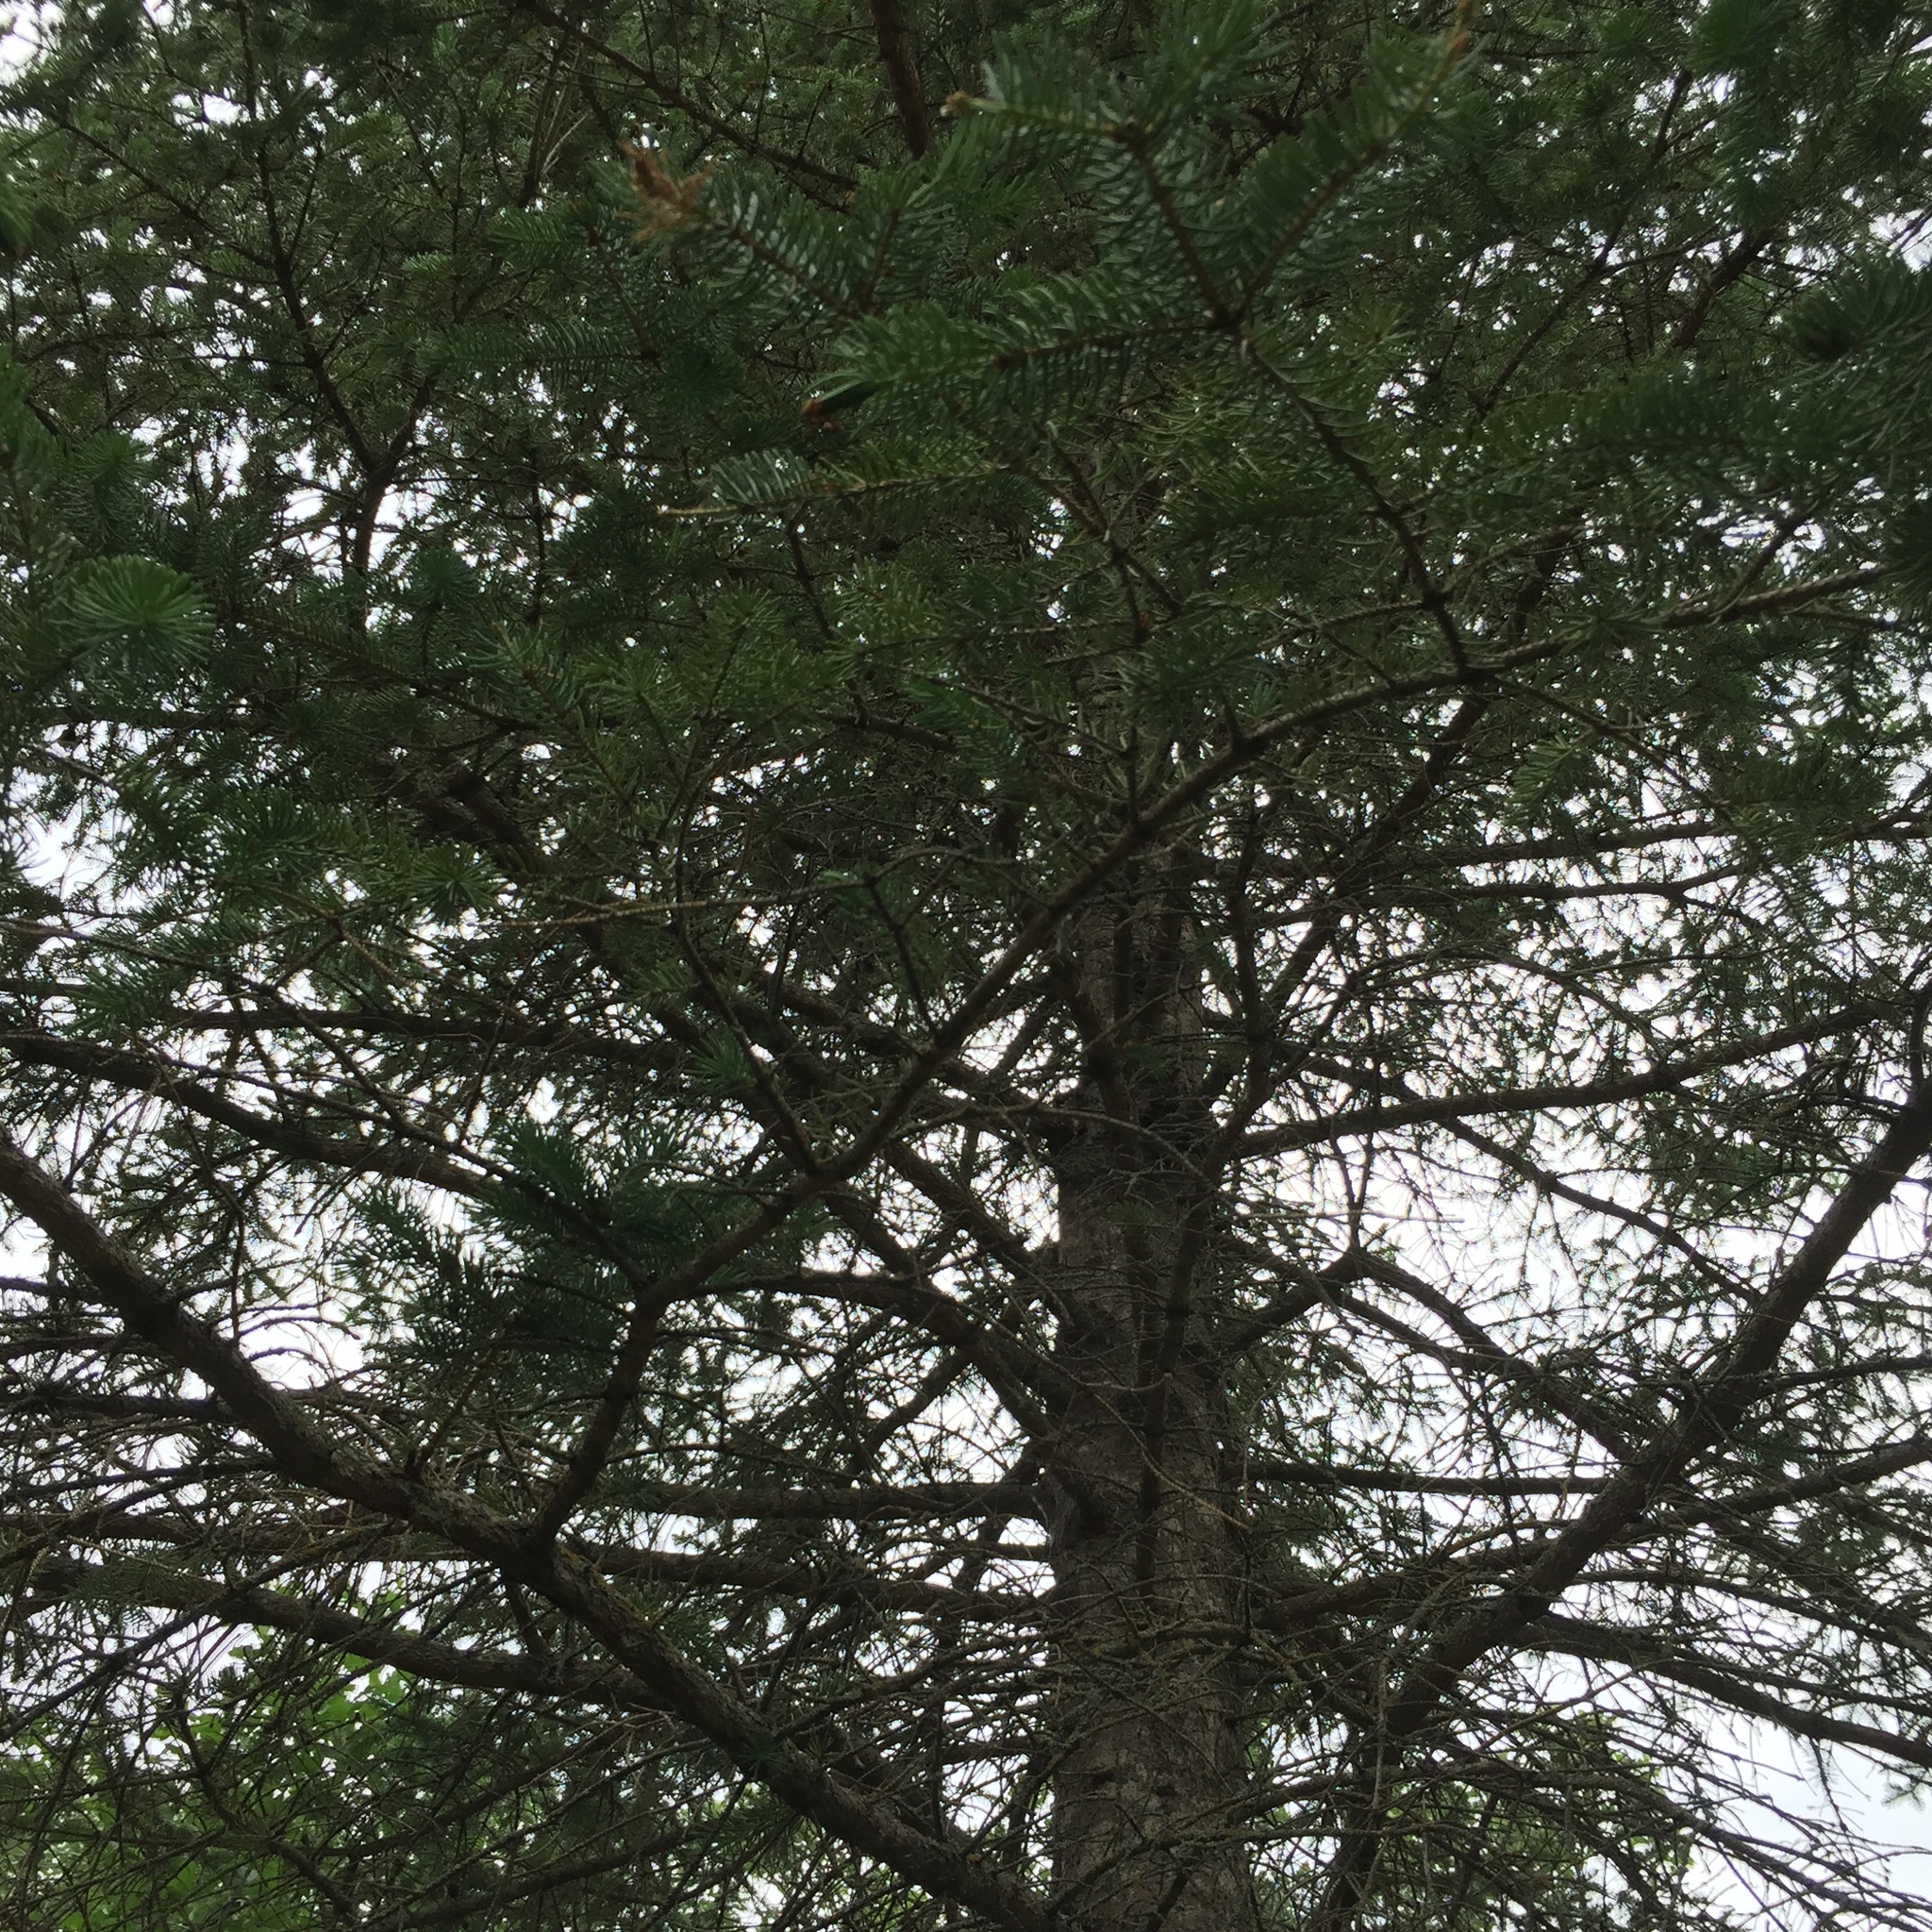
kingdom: Plantae
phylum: Tracheophyta
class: Pinopsida
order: Pinales
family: Pinaceae
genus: Picea
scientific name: Picea glauca
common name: White spruce
